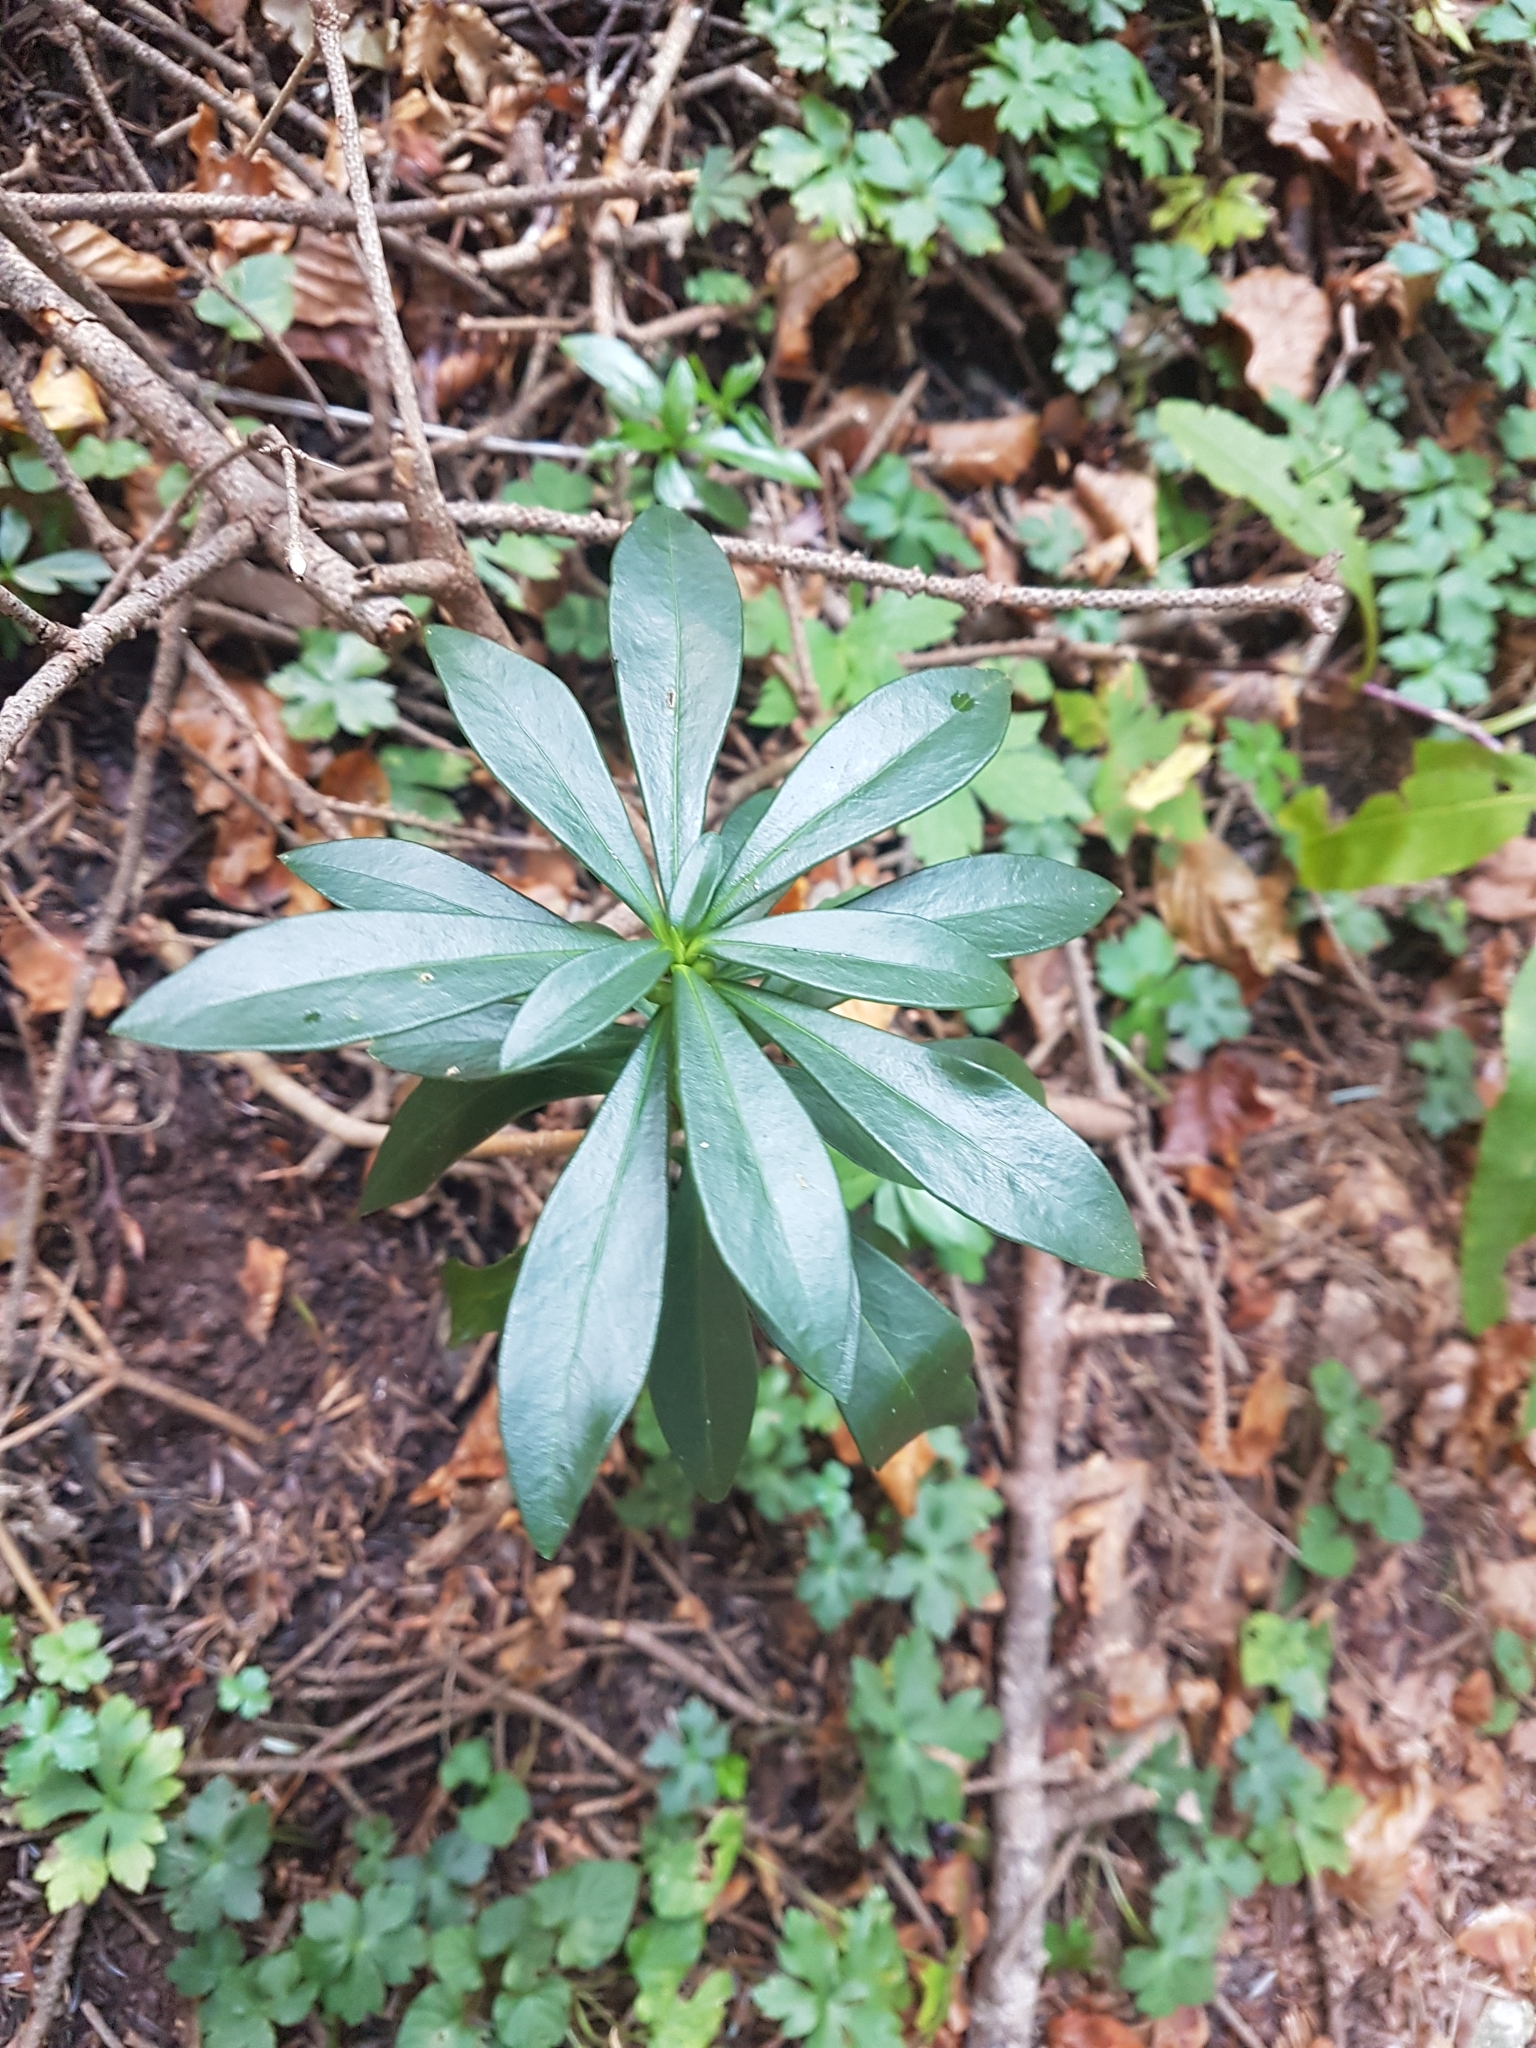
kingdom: Plantae
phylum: Tracheophyta
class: Magnoliopsida
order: Malvales
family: Thymelaeaceae
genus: Daphne
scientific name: Daphne laureola
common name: Spurge-laurel
